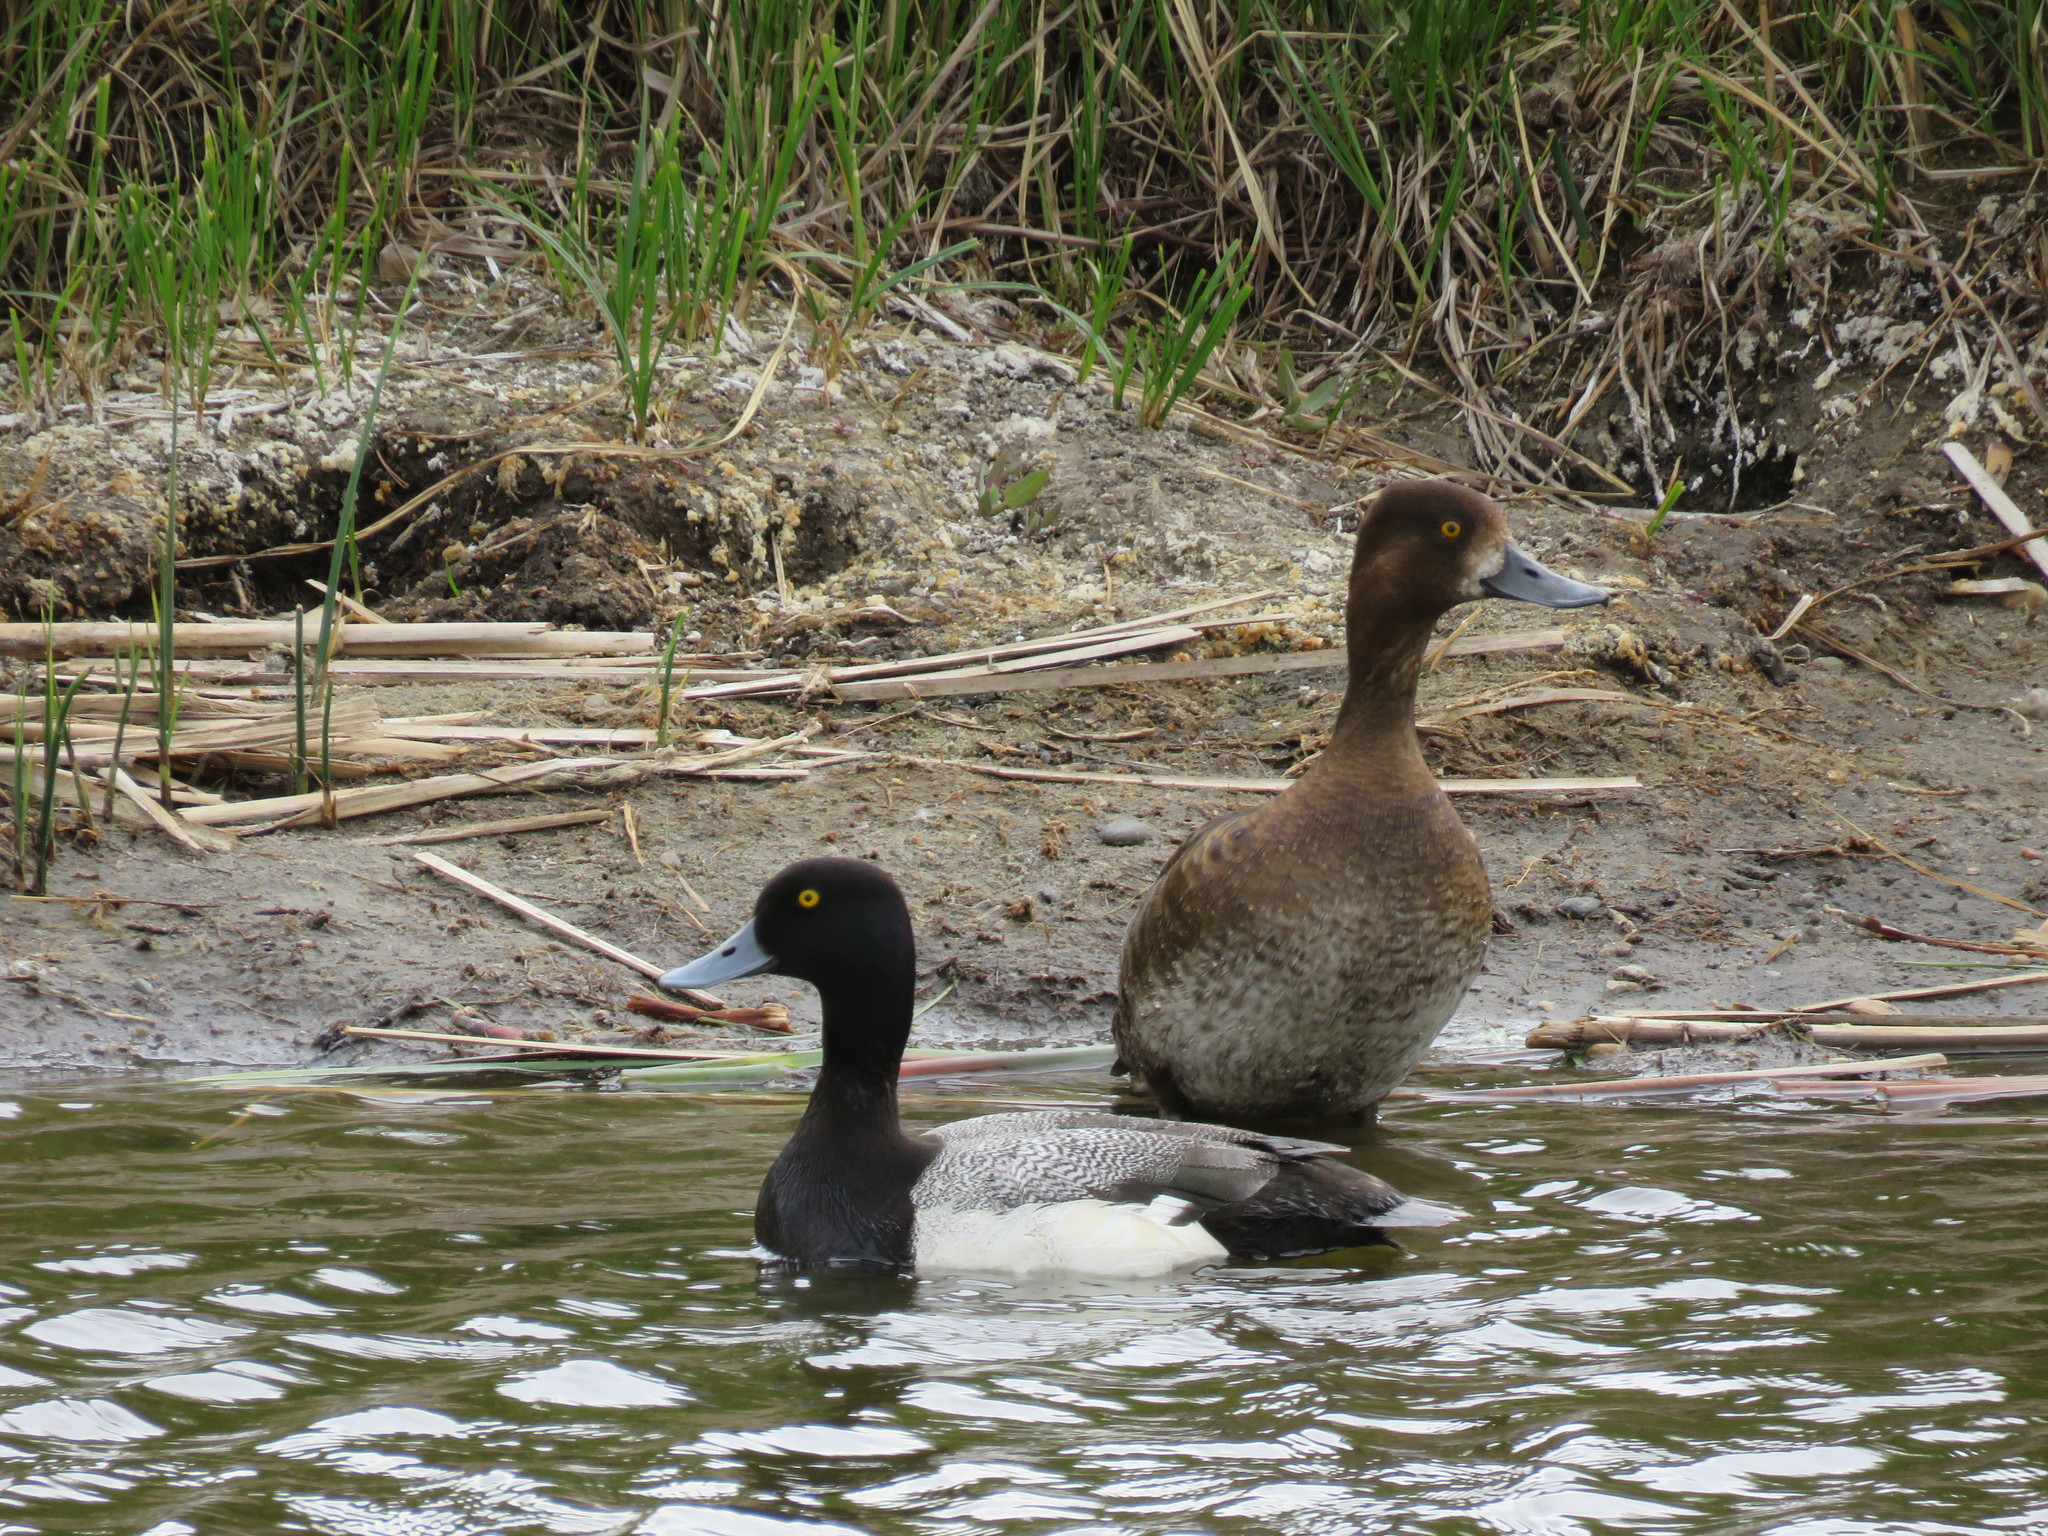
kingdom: Animalia
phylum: Chordata
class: Aves
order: Anseriformes
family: Anatidae
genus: Aythya
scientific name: Aythya affinis
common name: Lesser scaup
